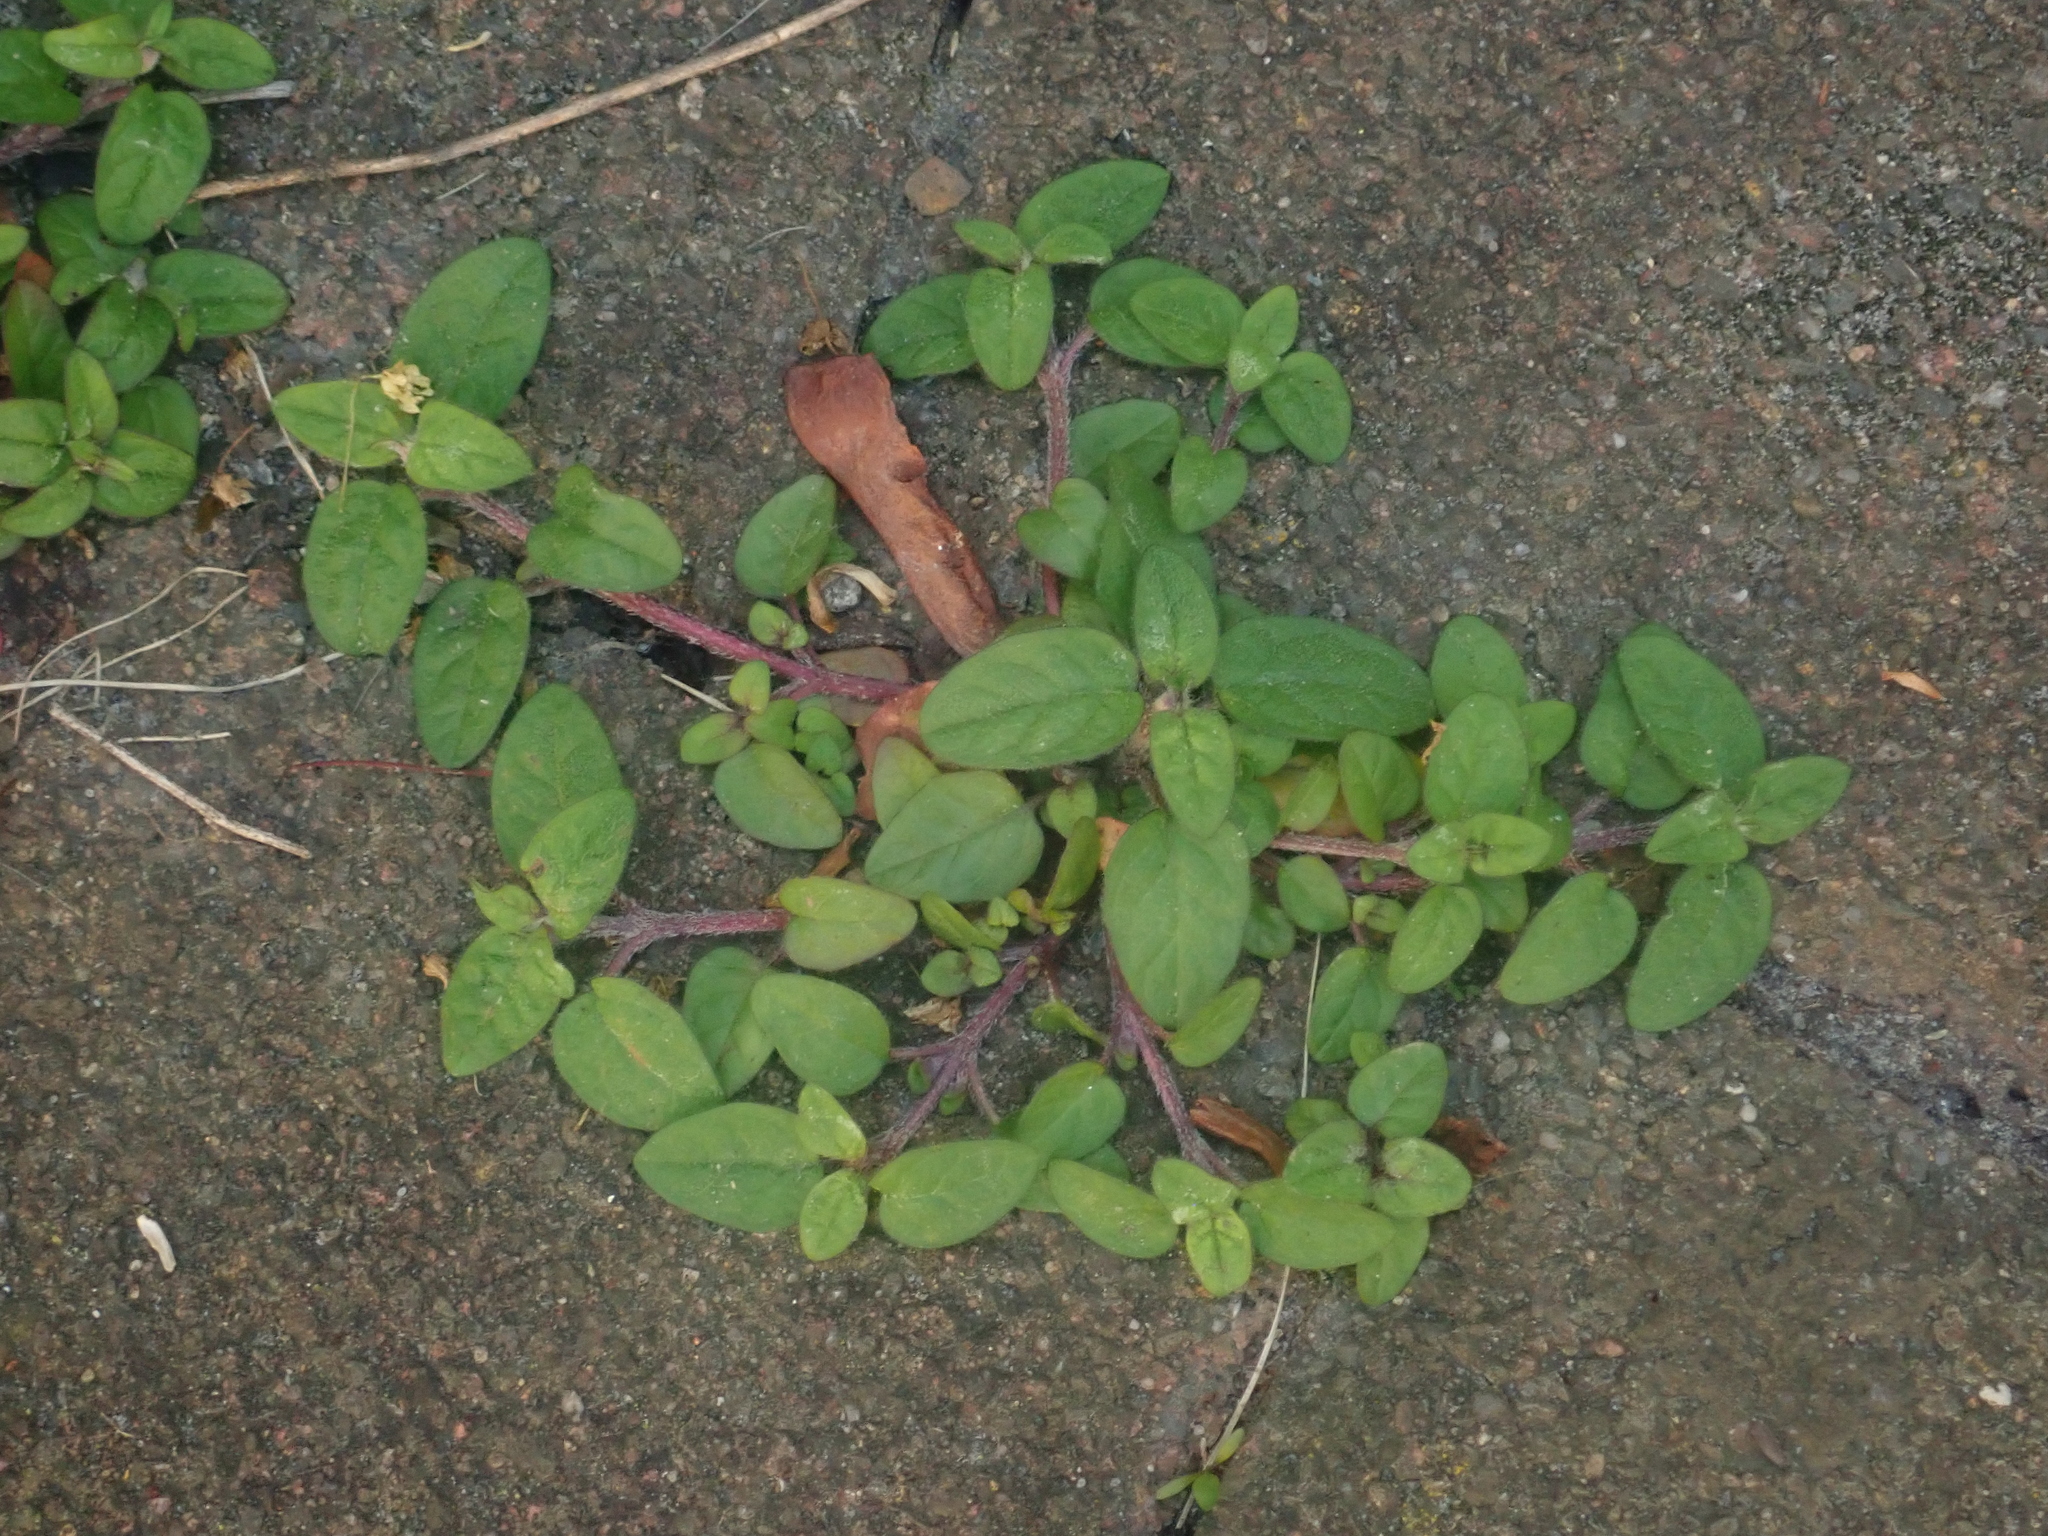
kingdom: Plantae
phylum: Tracheophyta
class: Magnoliopsida
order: Lamiales
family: Lamiaceae
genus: Prunella
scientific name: Prunella vulgaris
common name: Heal-all
